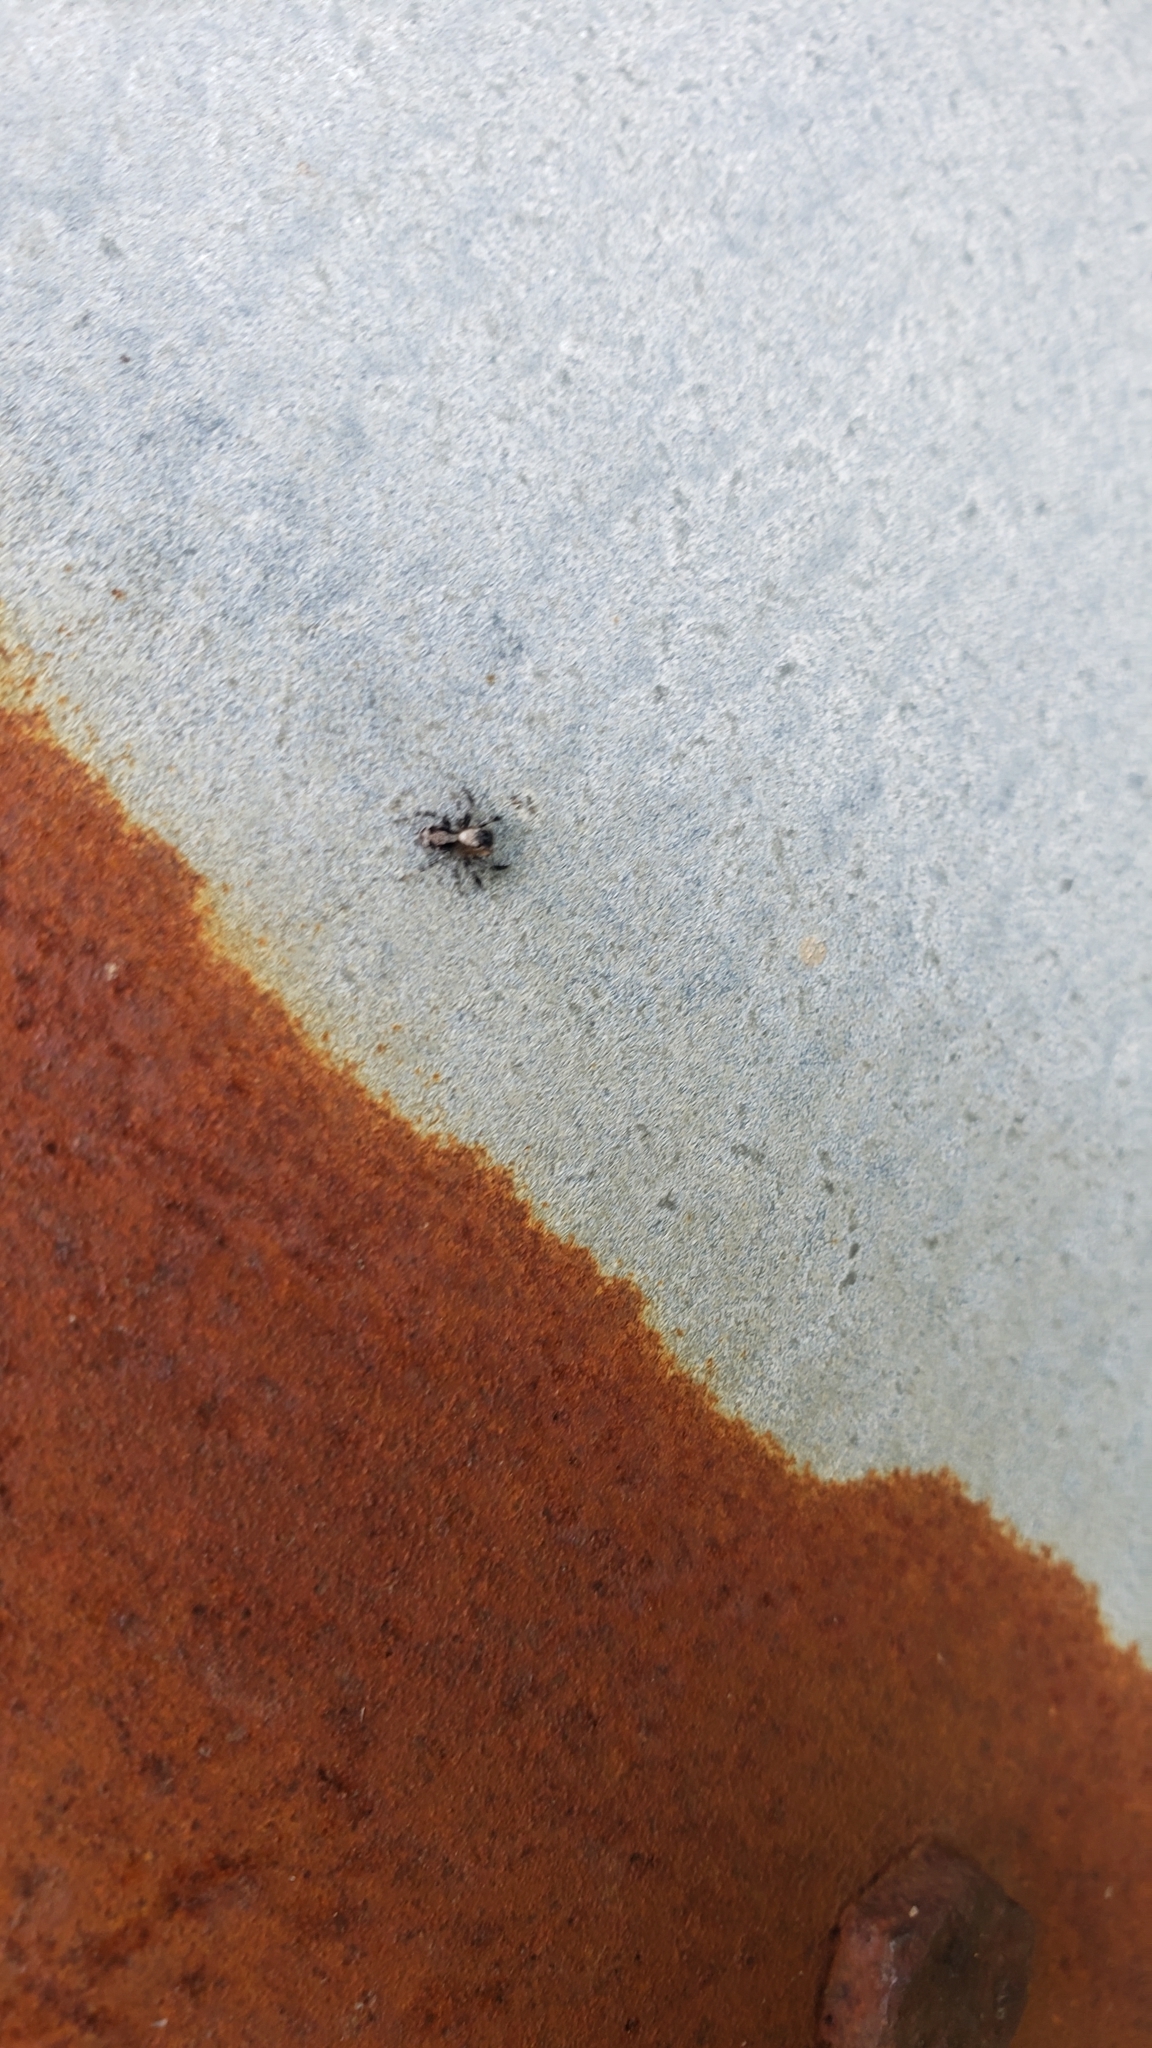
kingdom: Animalia
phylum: Arthropoda
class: Arachnida
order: Araneae
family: Salticidae
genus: Naphrys
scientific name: Naphrys pulex
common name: Flea jumping spider
